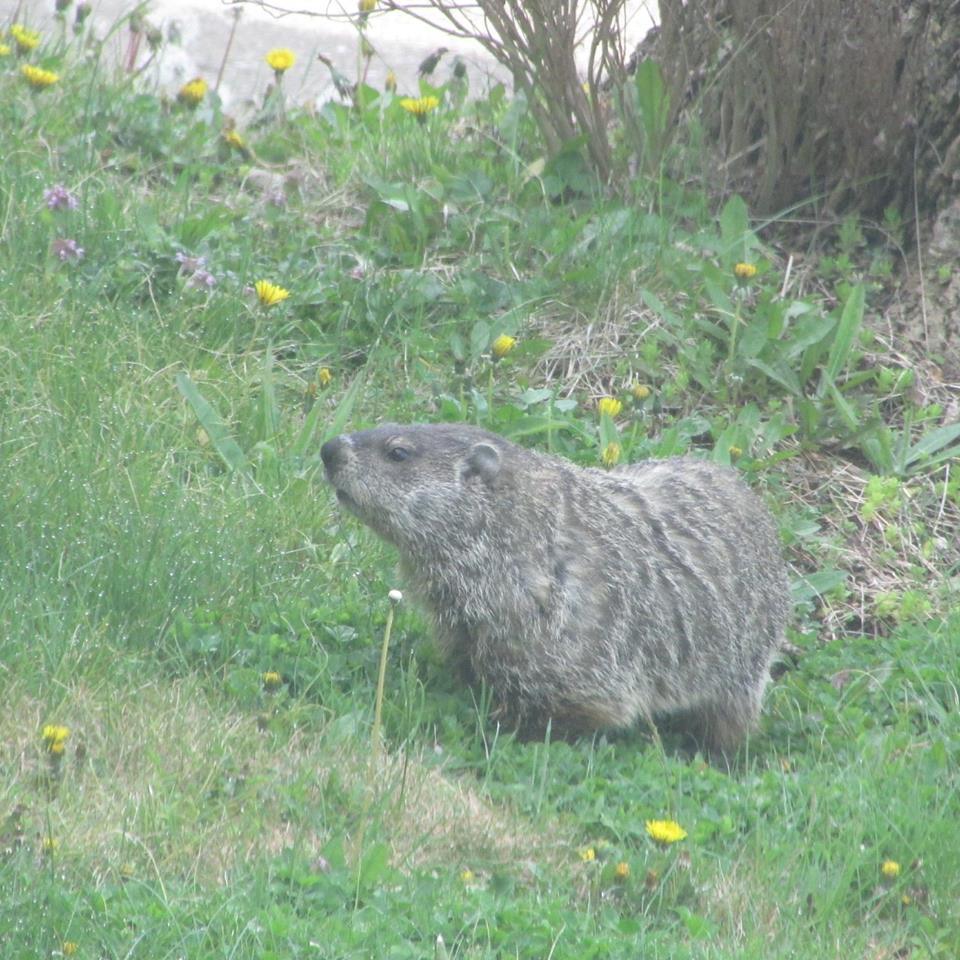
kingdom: Animalia
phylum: Chordata
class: Mammalia
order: Rodentia
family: Sciuridae
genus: Marmota
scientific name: Marmota monax
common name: Groundhog
